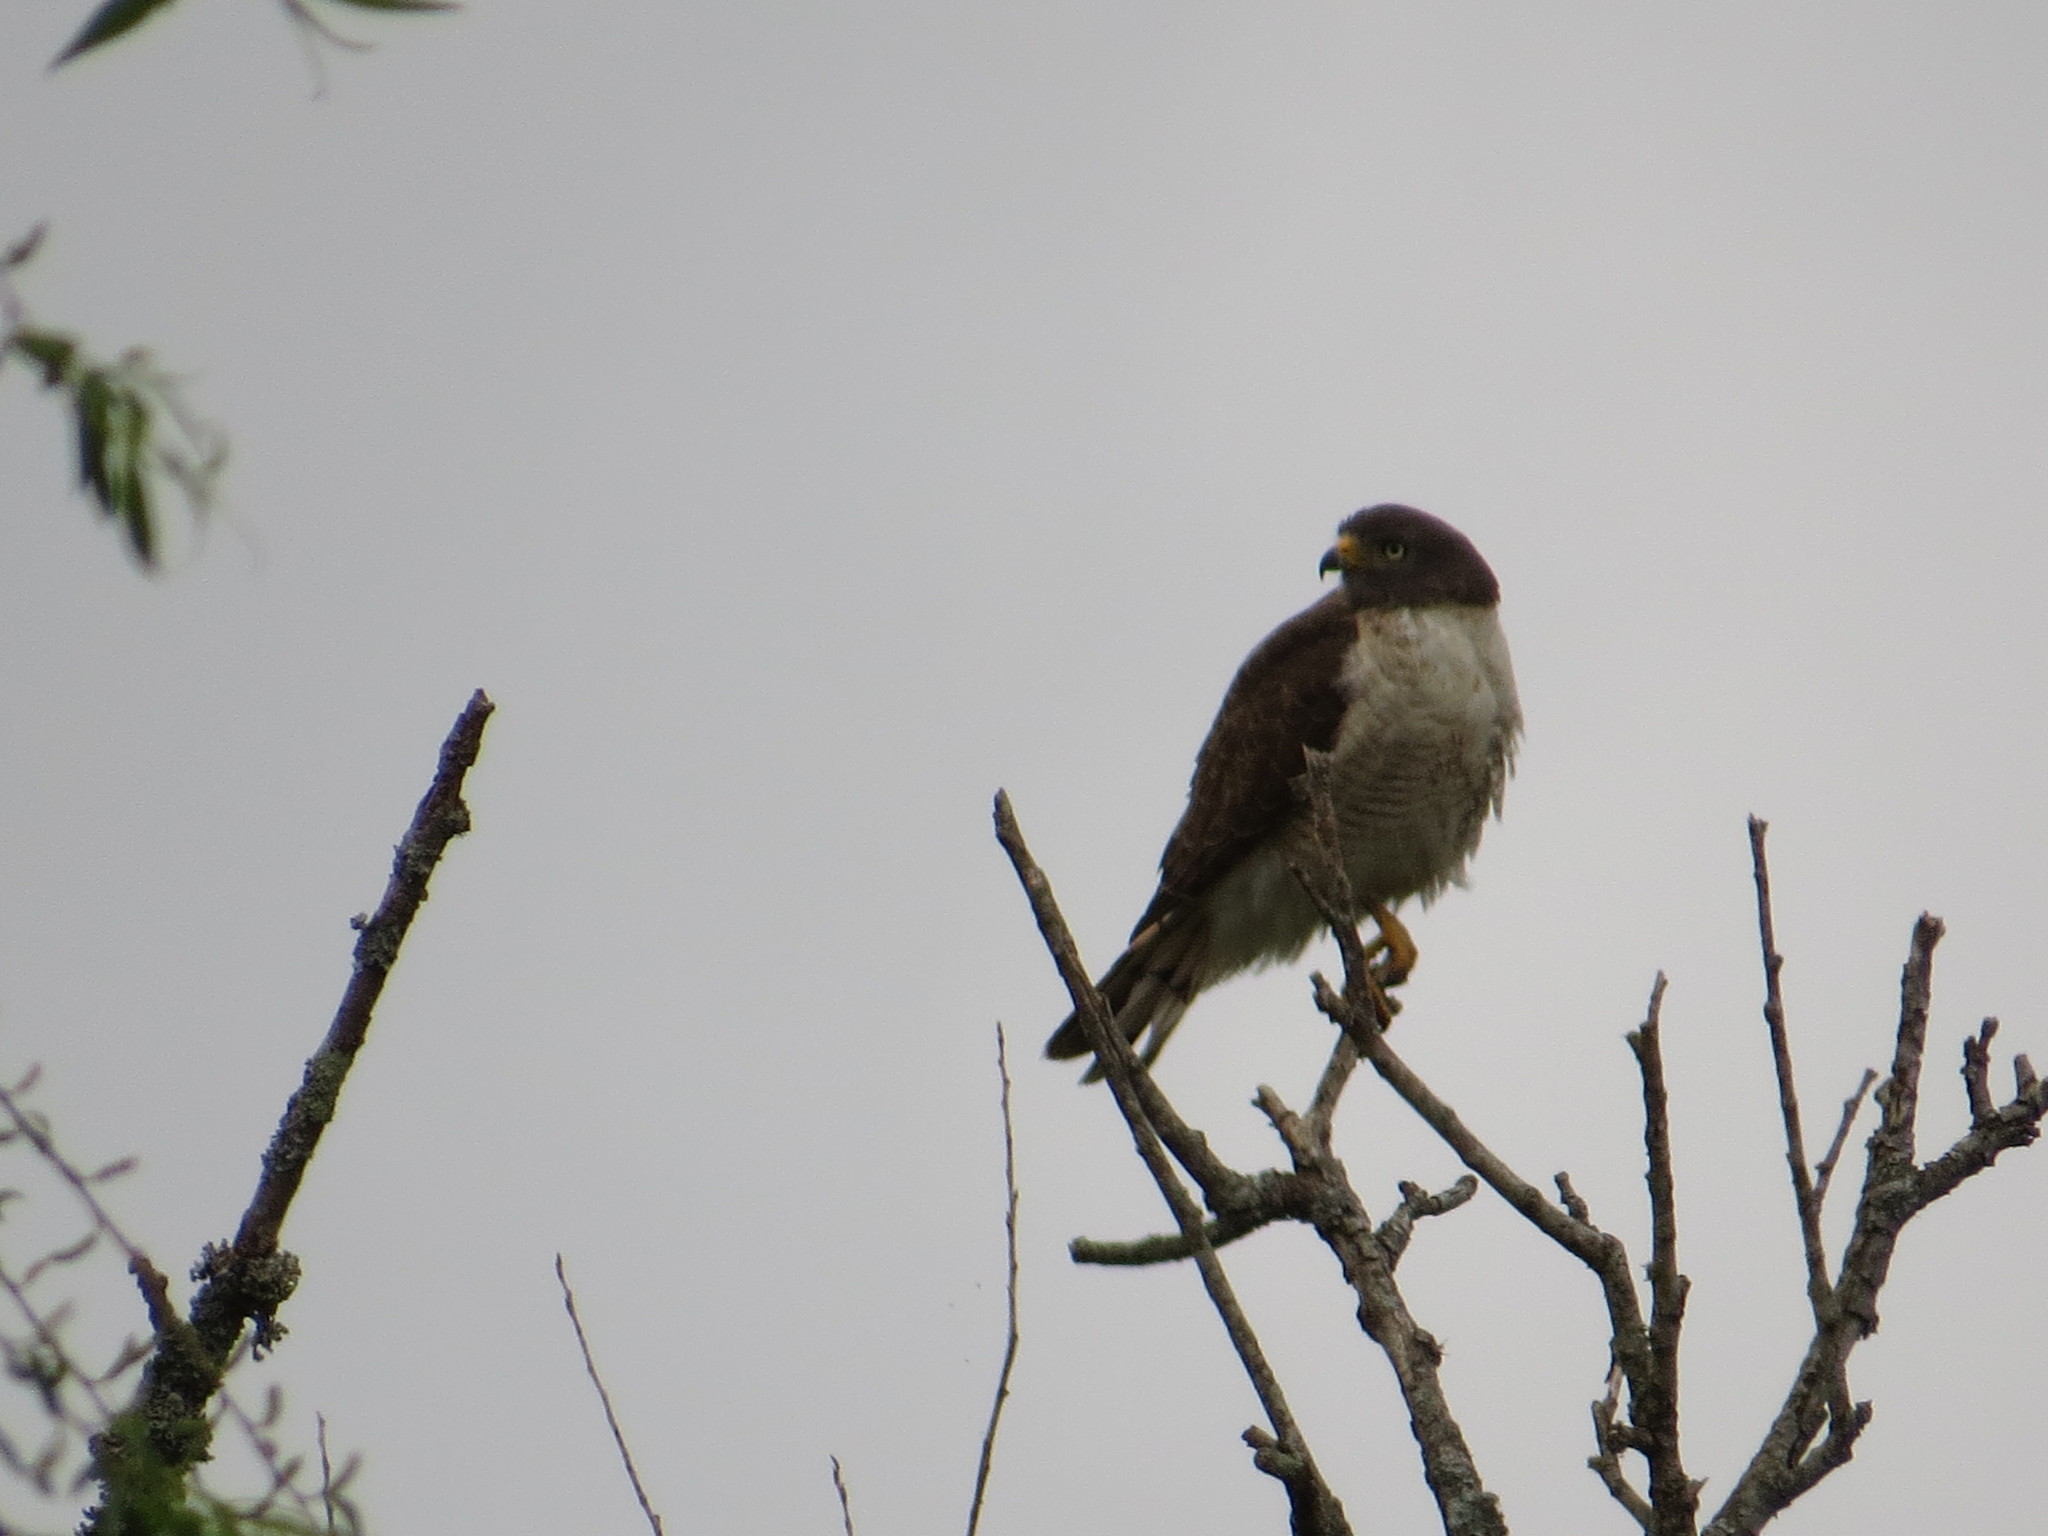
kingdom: Animalia
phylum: Chordata
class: Aves
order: Accipitriformes
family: Accipitridae
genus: Rupornis
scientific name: Rupornis magnirostris
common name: Roadside hawk
